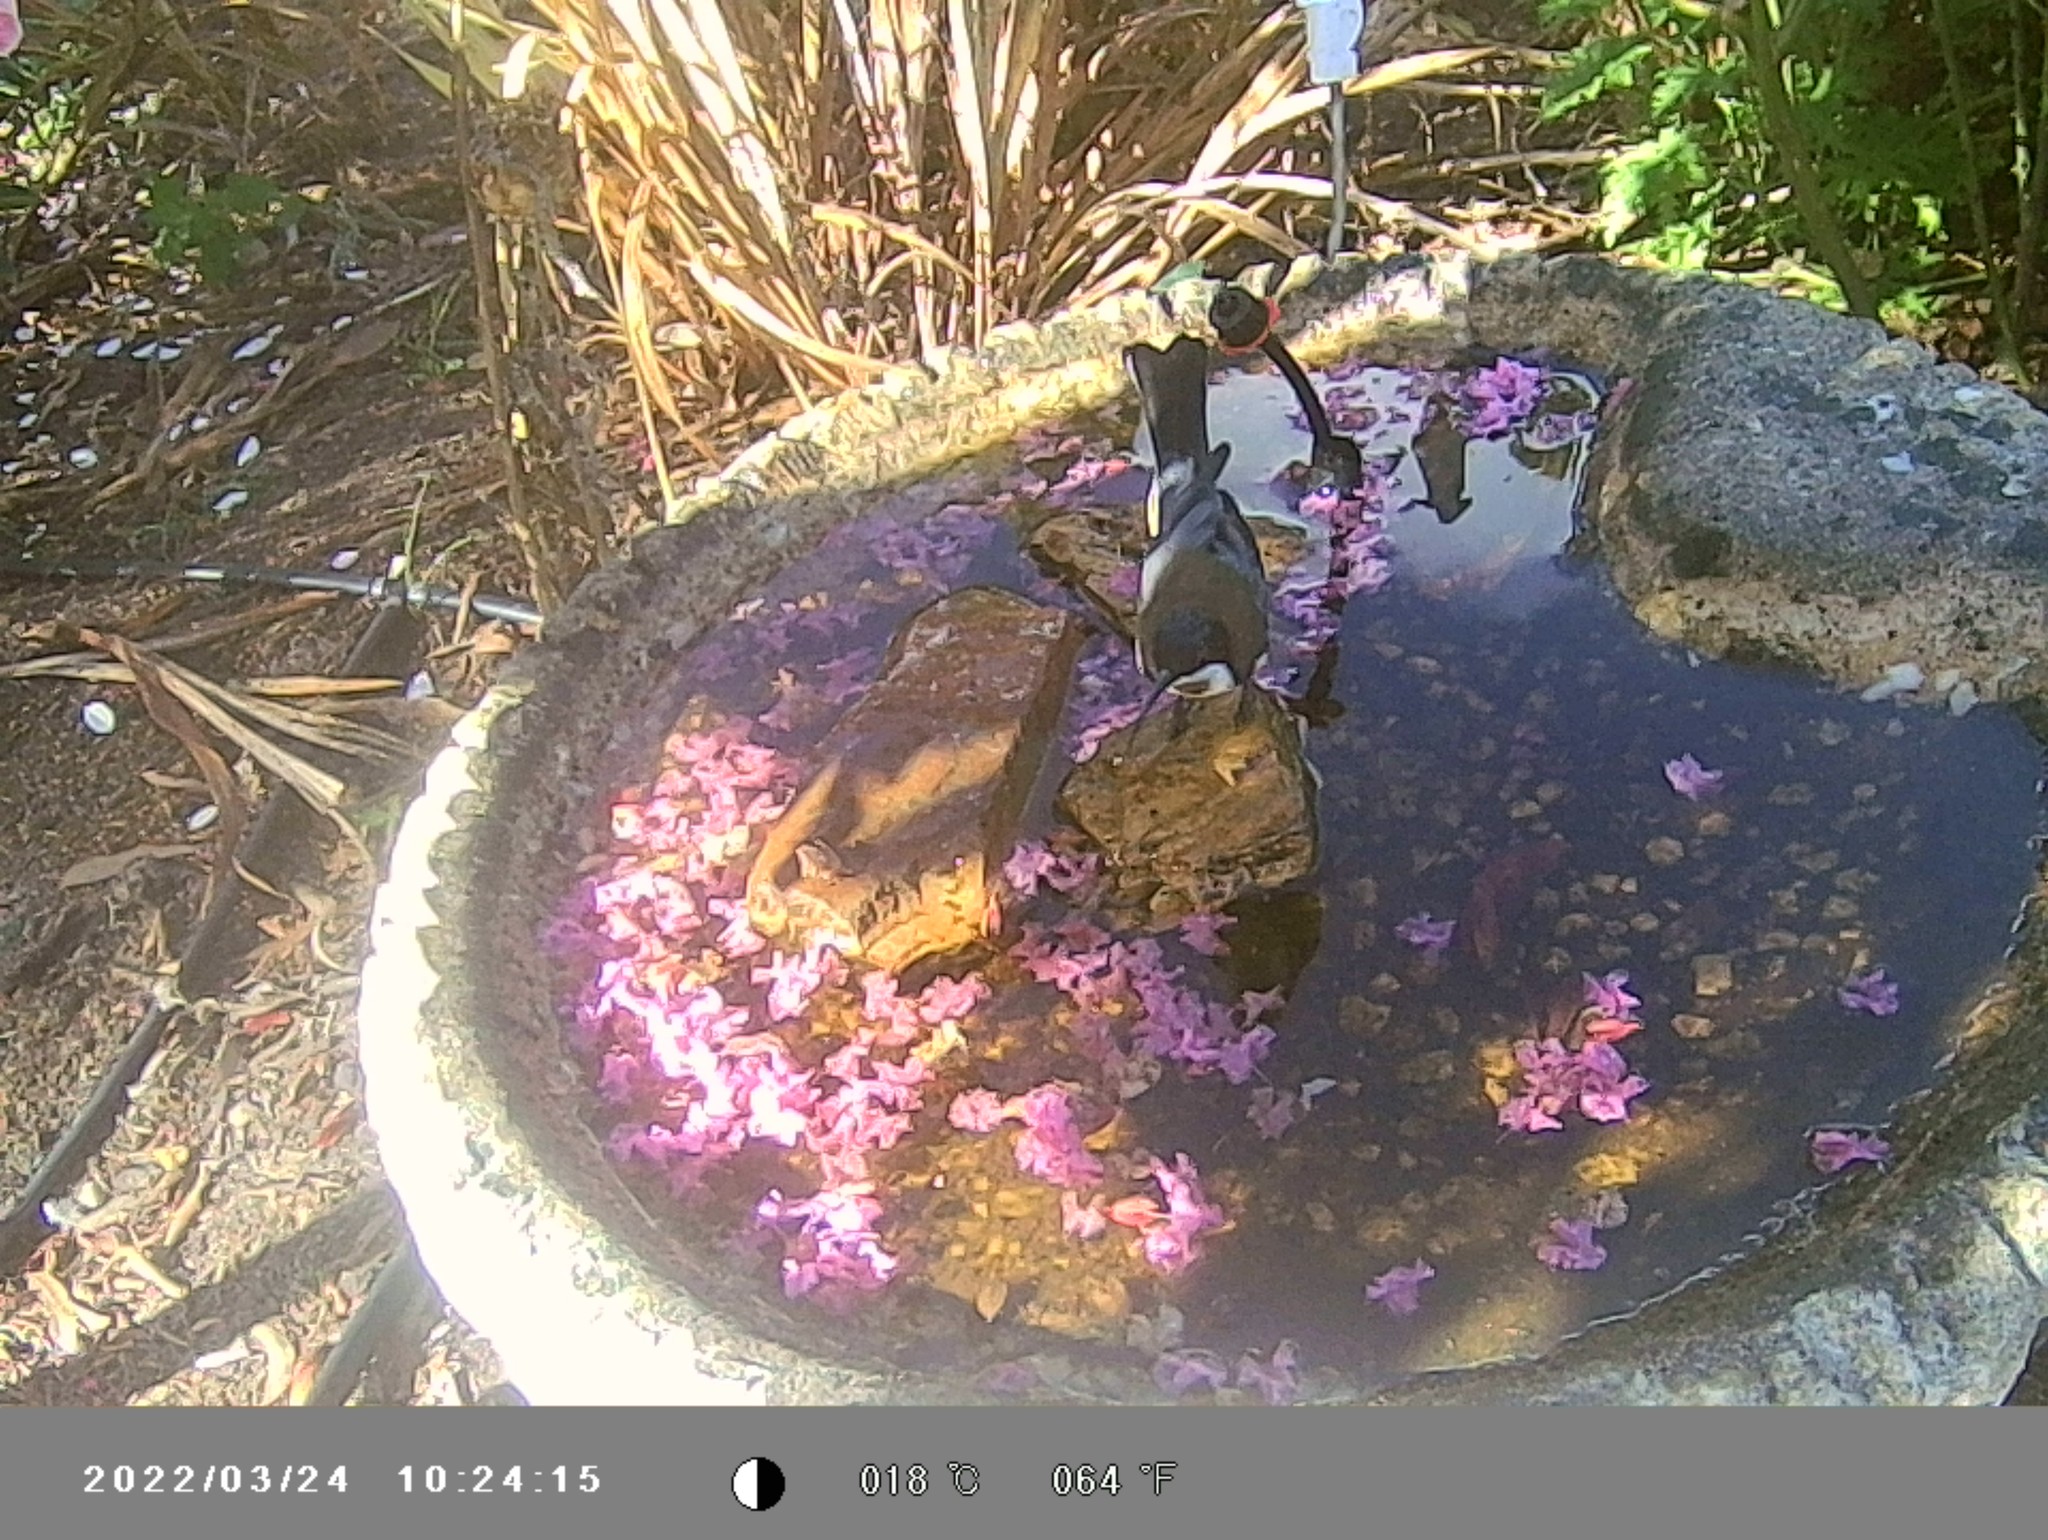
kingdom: Animalia
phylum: Chordata
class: Aves
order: Passeriformes
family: Meliphagidae
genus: Acanthorhynchus
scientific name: Acanthorhynchus tenuirostris
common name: Eastern spinebill
